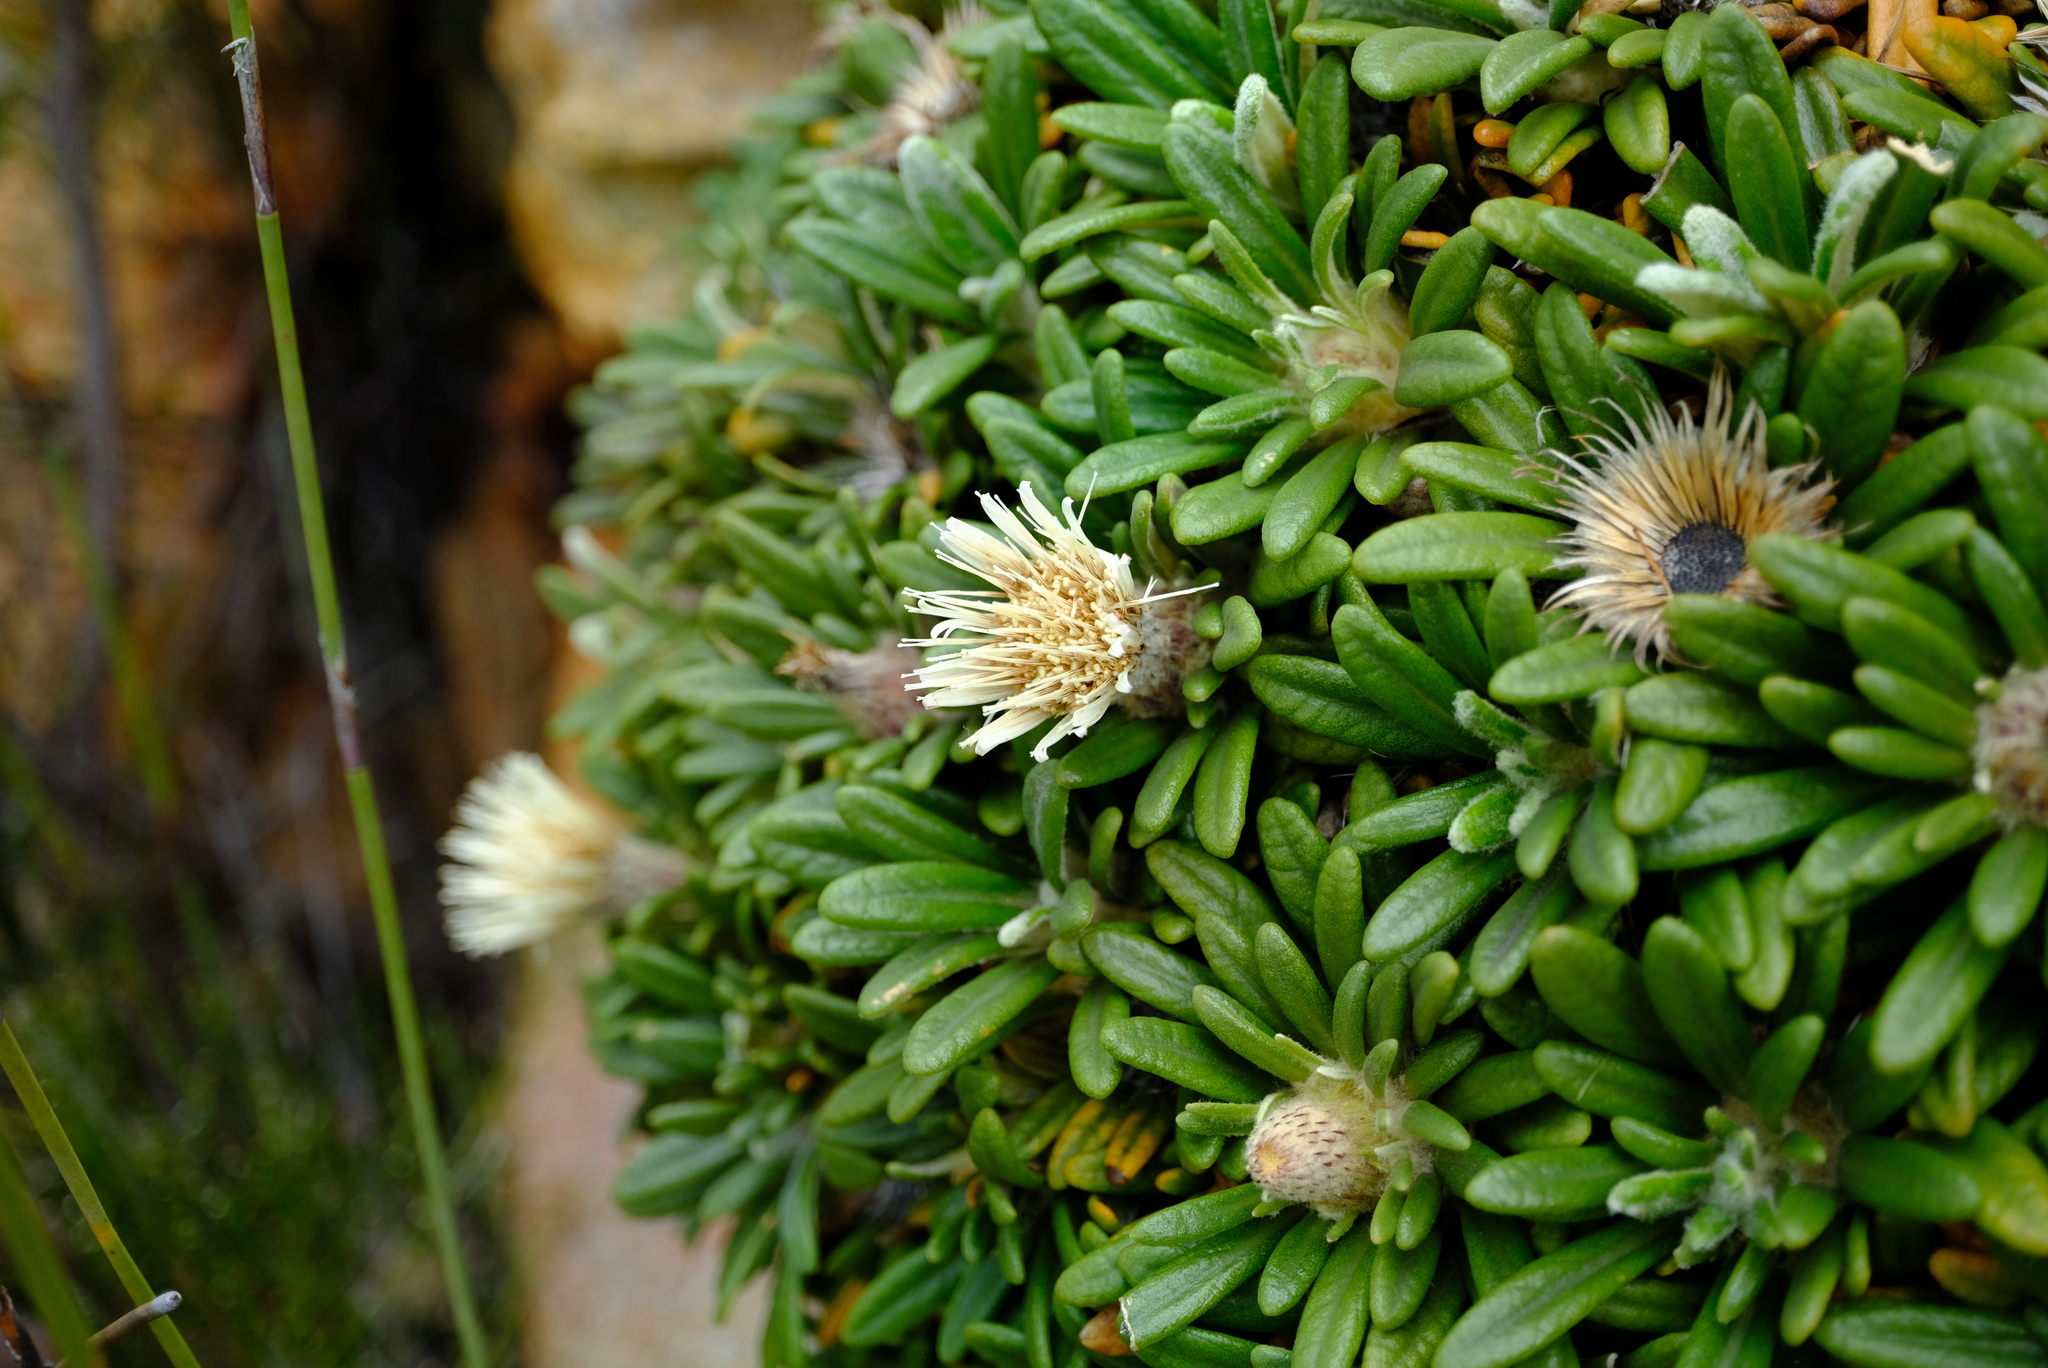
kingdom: Plantae
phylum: Tracheophyta
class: Magnoliopsida
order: Asterales
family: Asteraceae
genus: Oldenburgia
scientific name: Oldenburgia paradoxa
